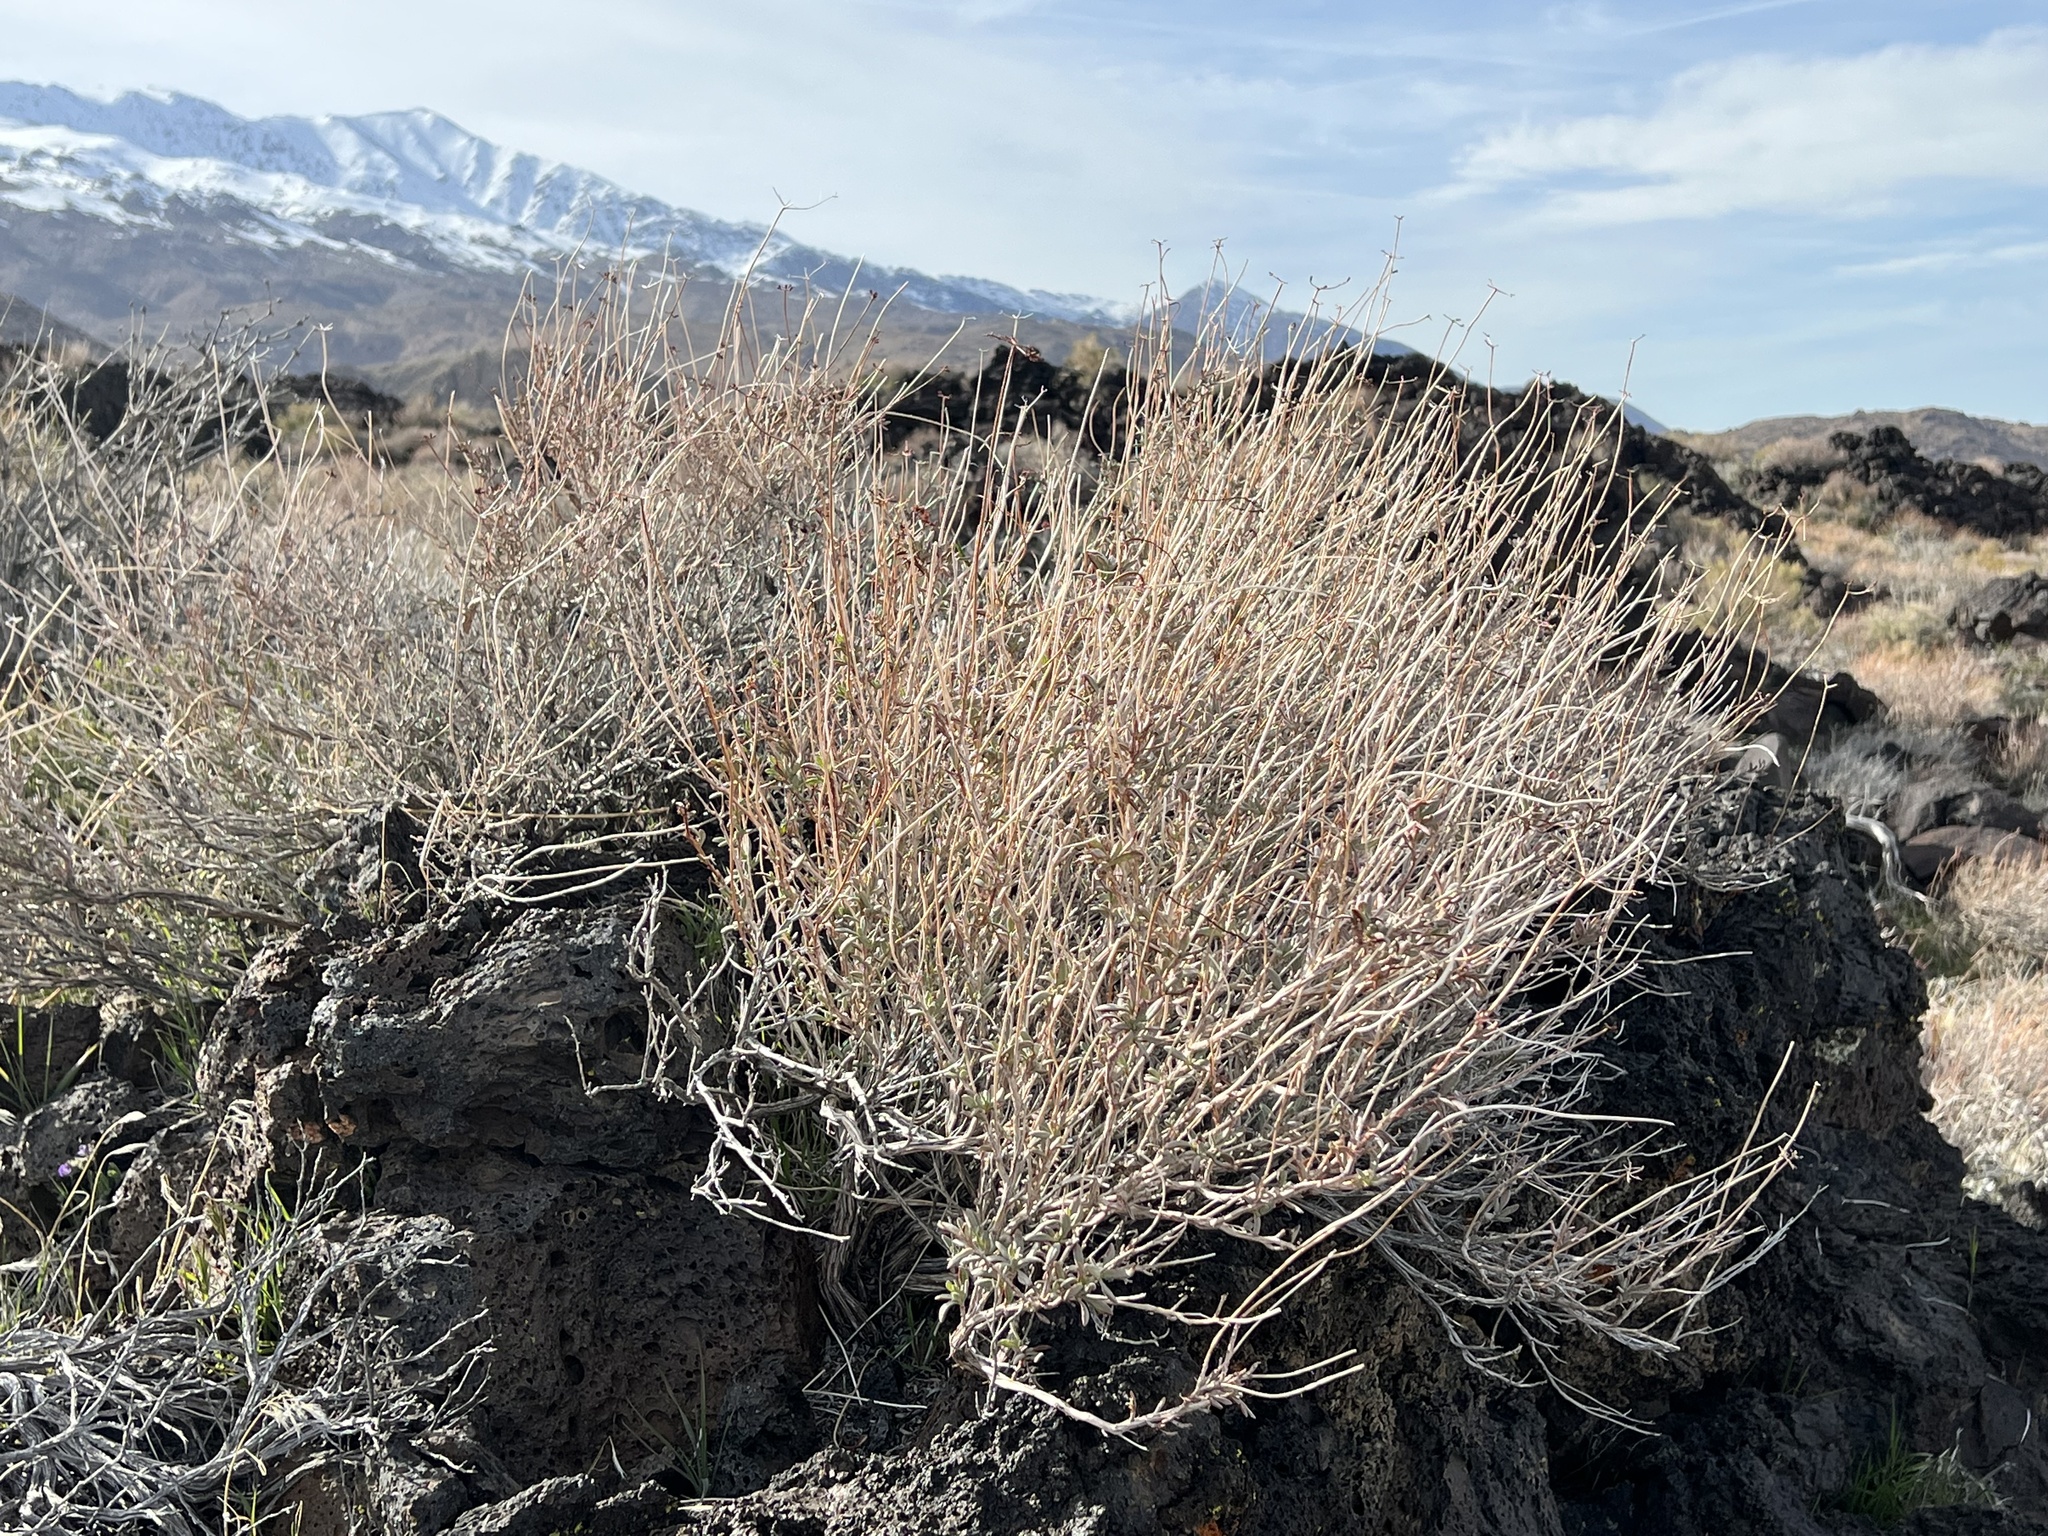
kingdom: Plantae
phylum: Tracheophyta
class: Magnoliopsida
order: Caryophyllales
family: Polygonaceae
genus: Eriogonum
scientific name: Eriogonum fasciculatum
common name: California wild buckwheat
